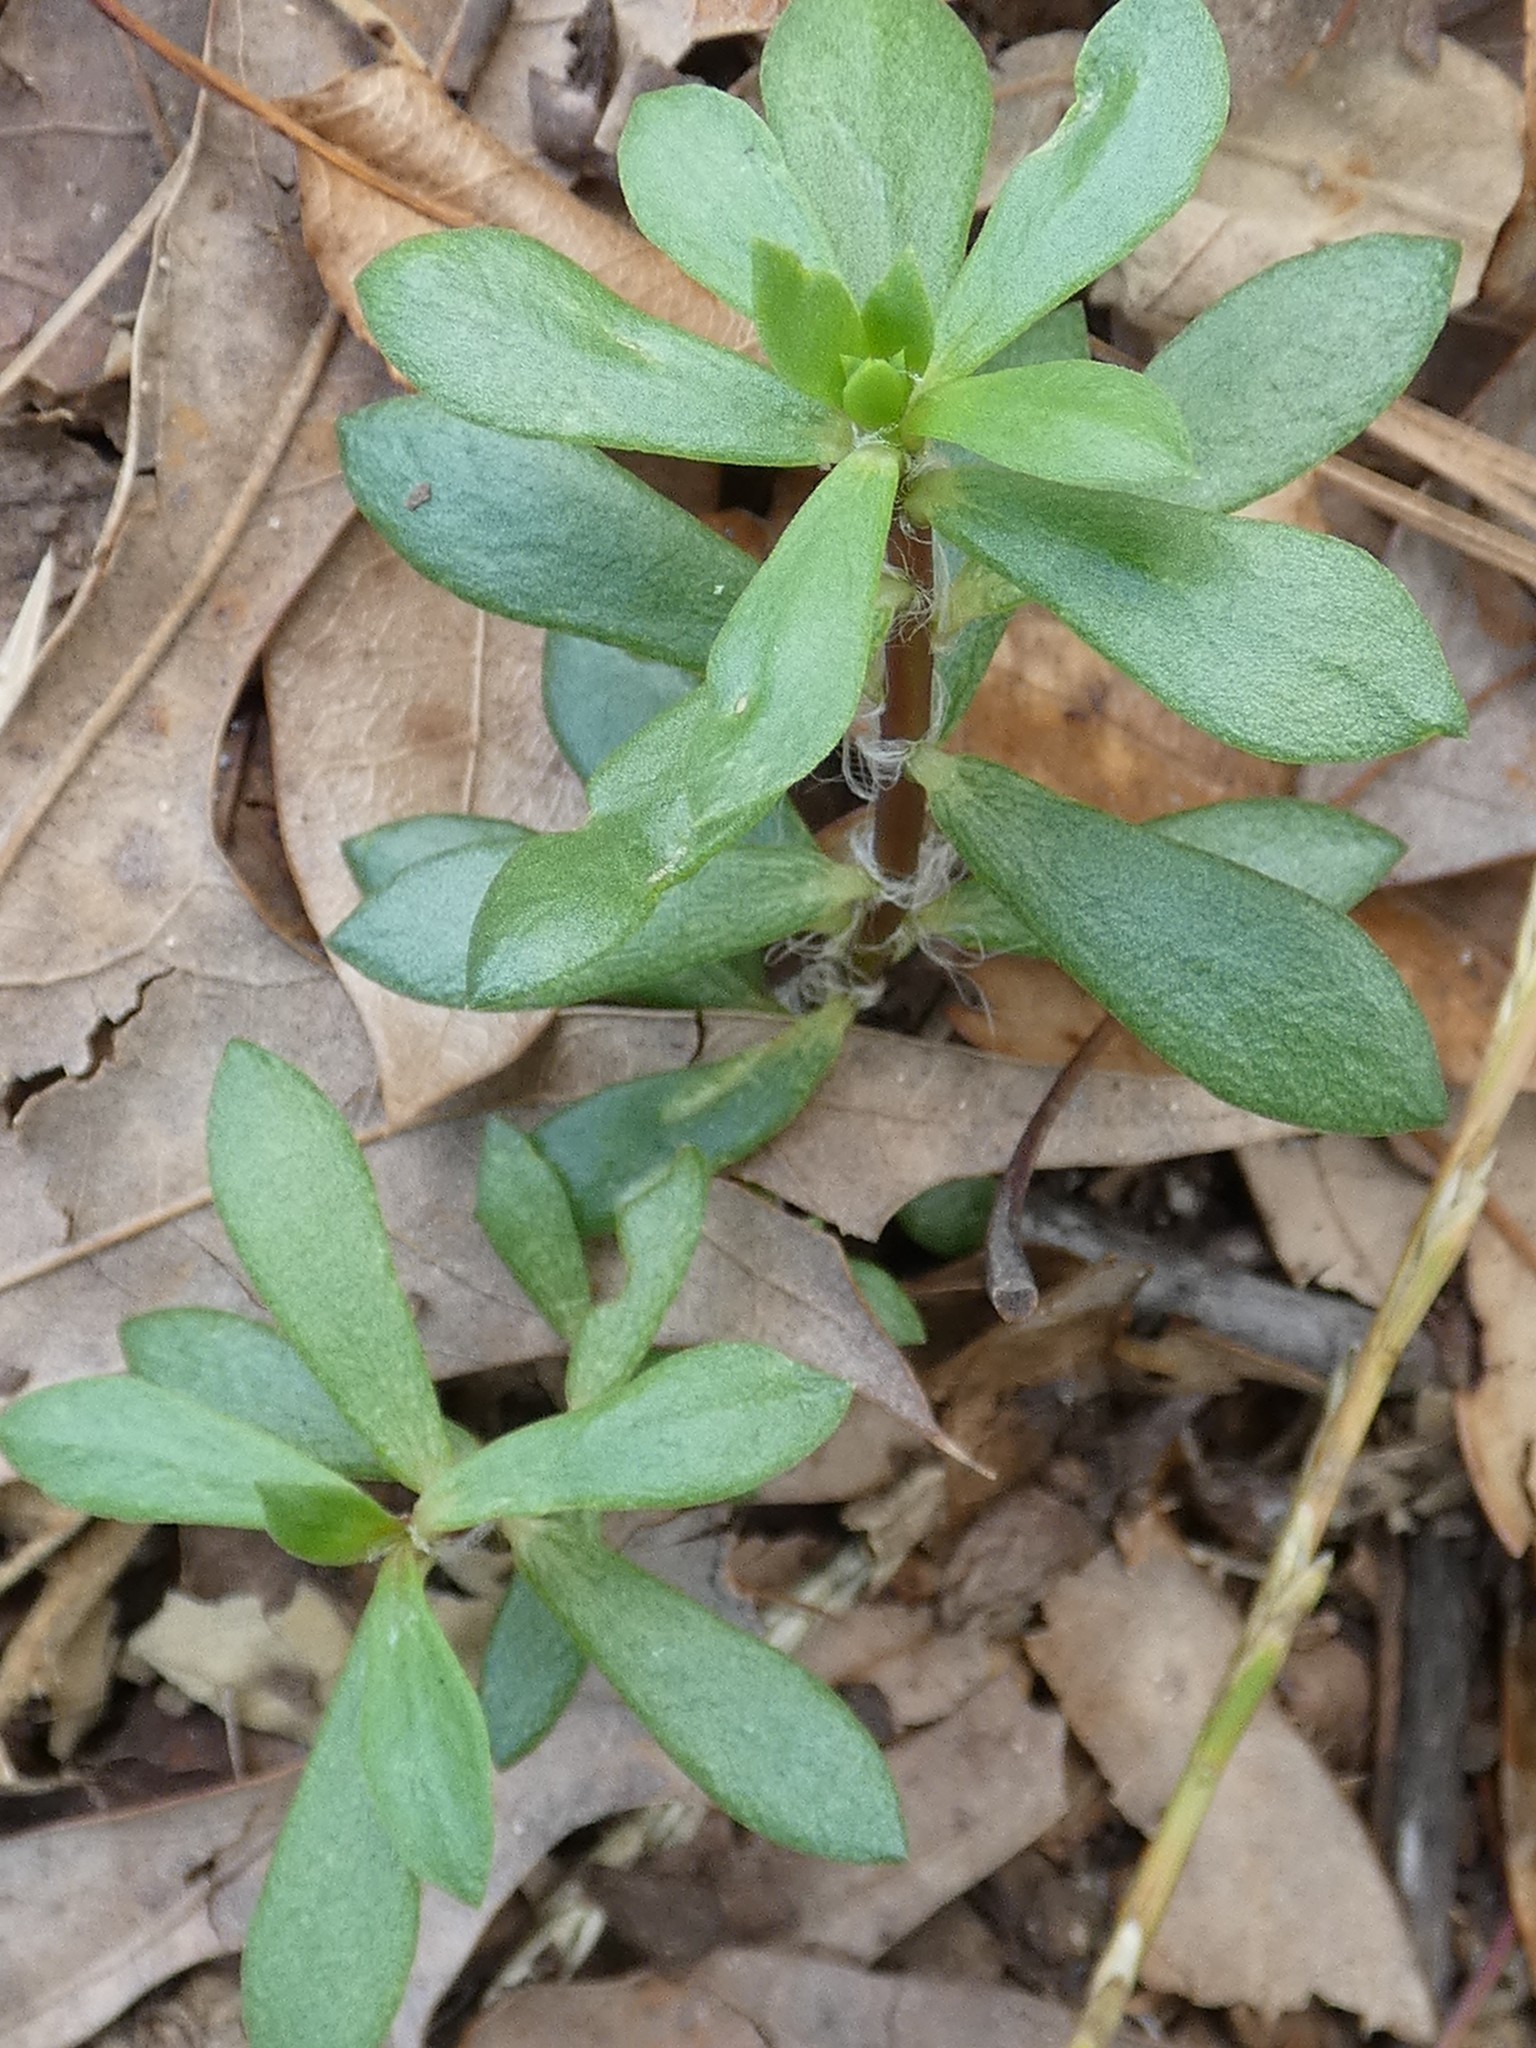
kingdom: Plantae
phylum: Tracheophyta
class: Magnoliopsida
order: Caryophyllales
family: Portulacaceae
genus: Portulaca
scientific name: Portulaca amilis
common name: Paraguayan purslane
